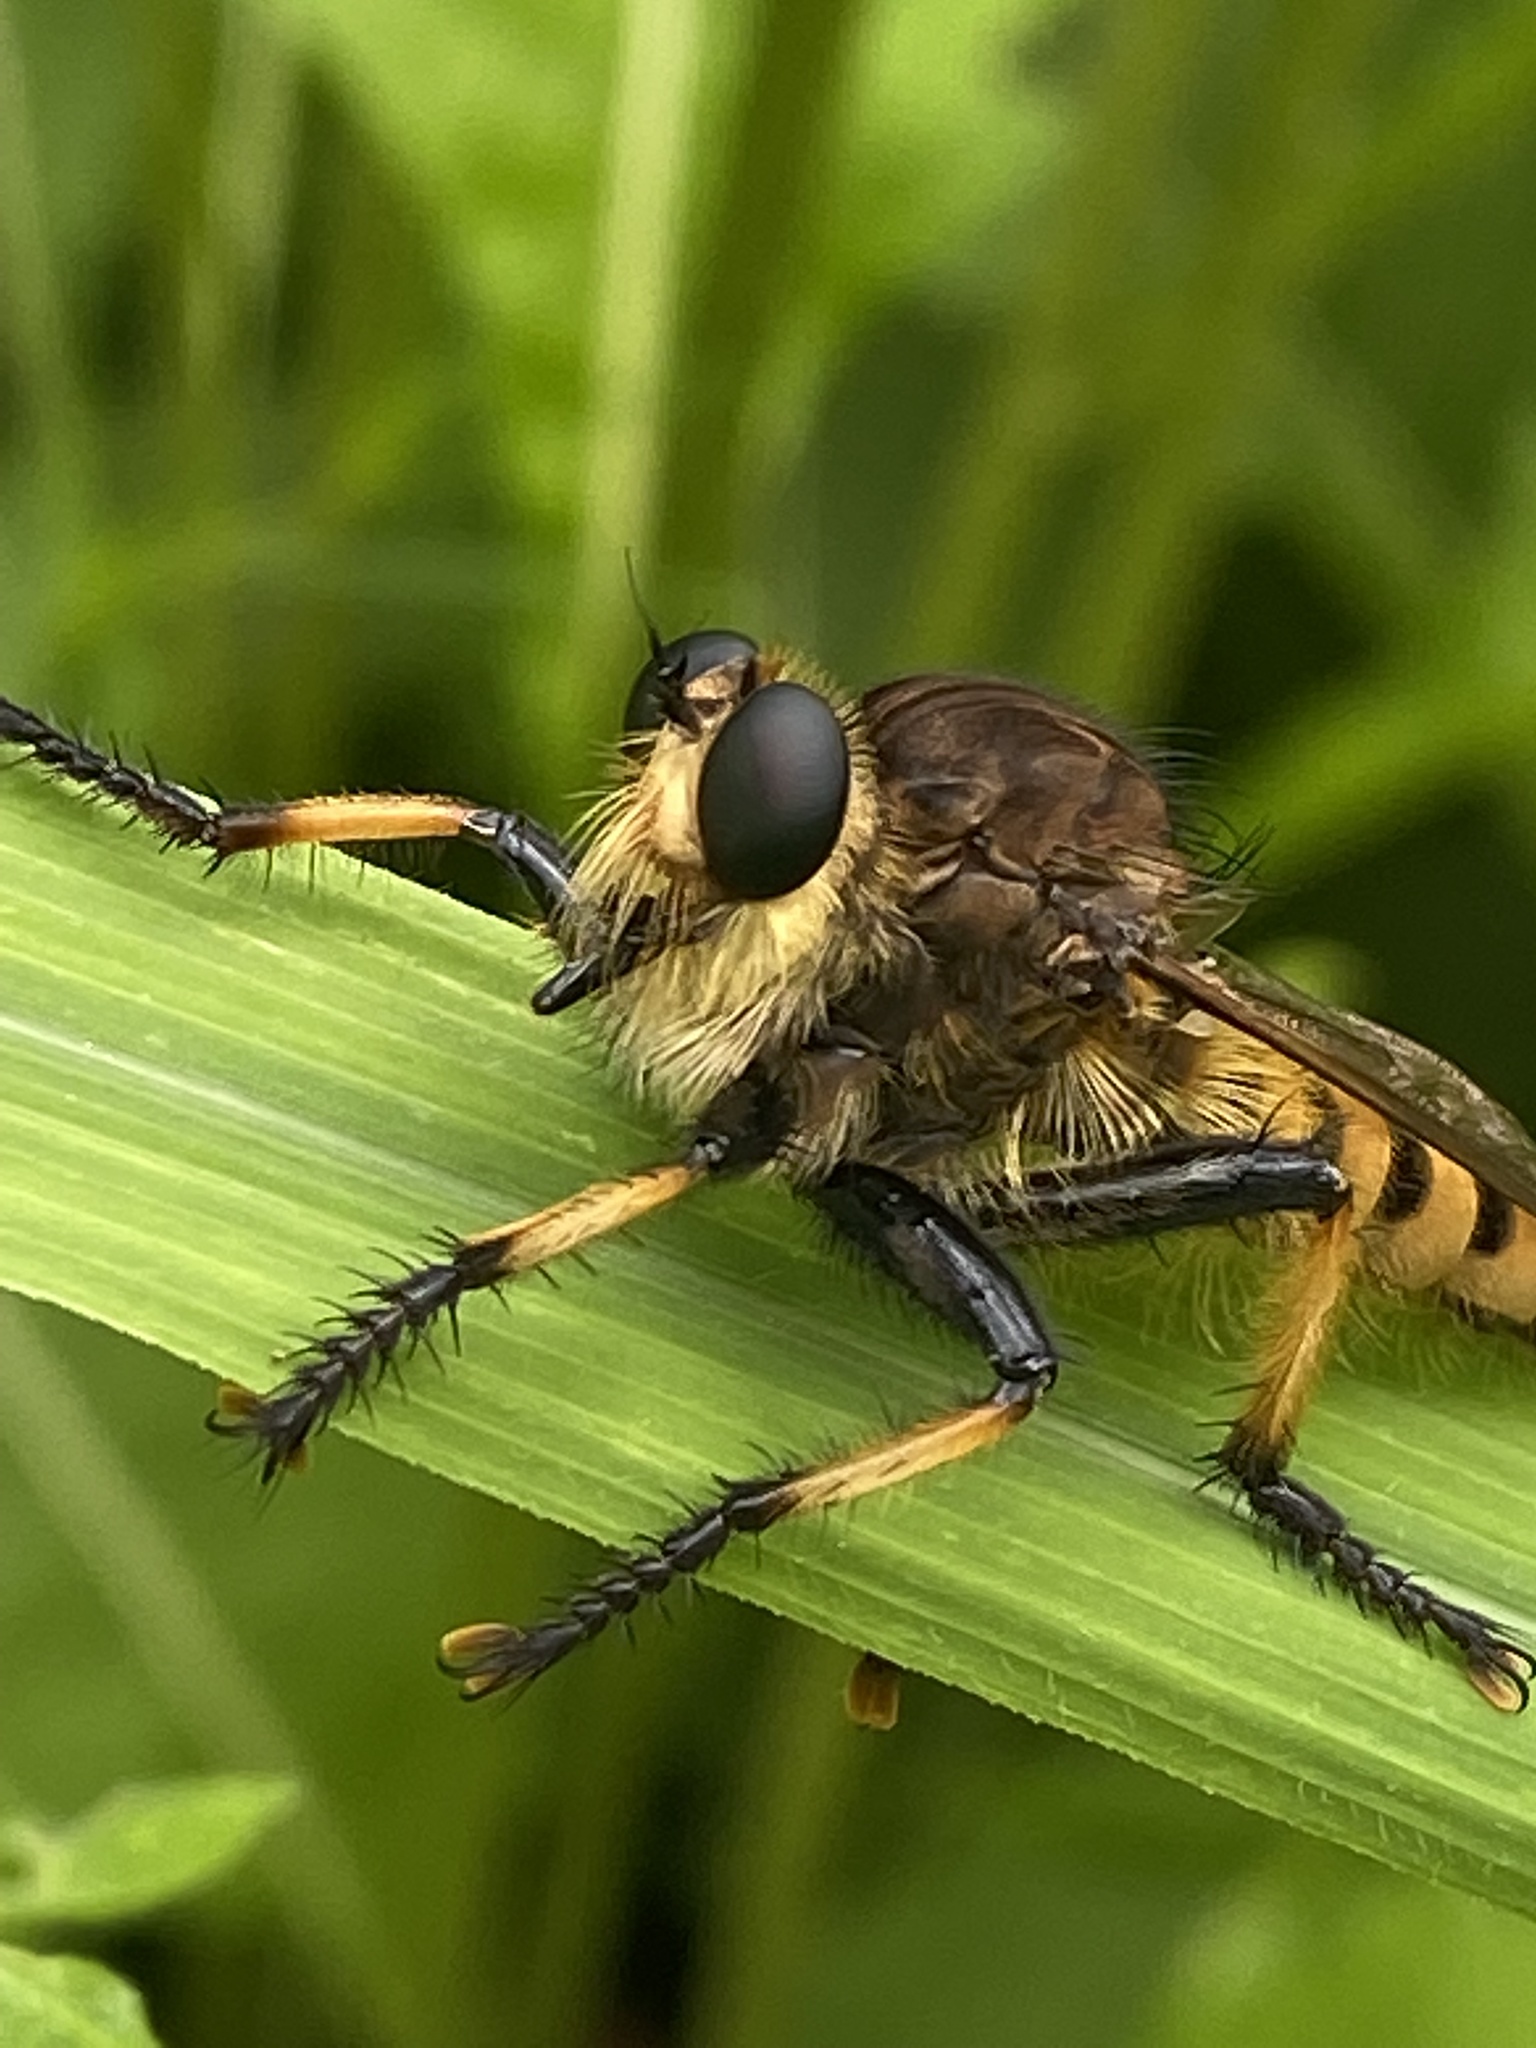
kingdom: Animalia
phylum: Arthropoda
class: Insecta
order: Diptera
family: Asilidae
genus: Promachus
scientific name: Promachus rufipes
